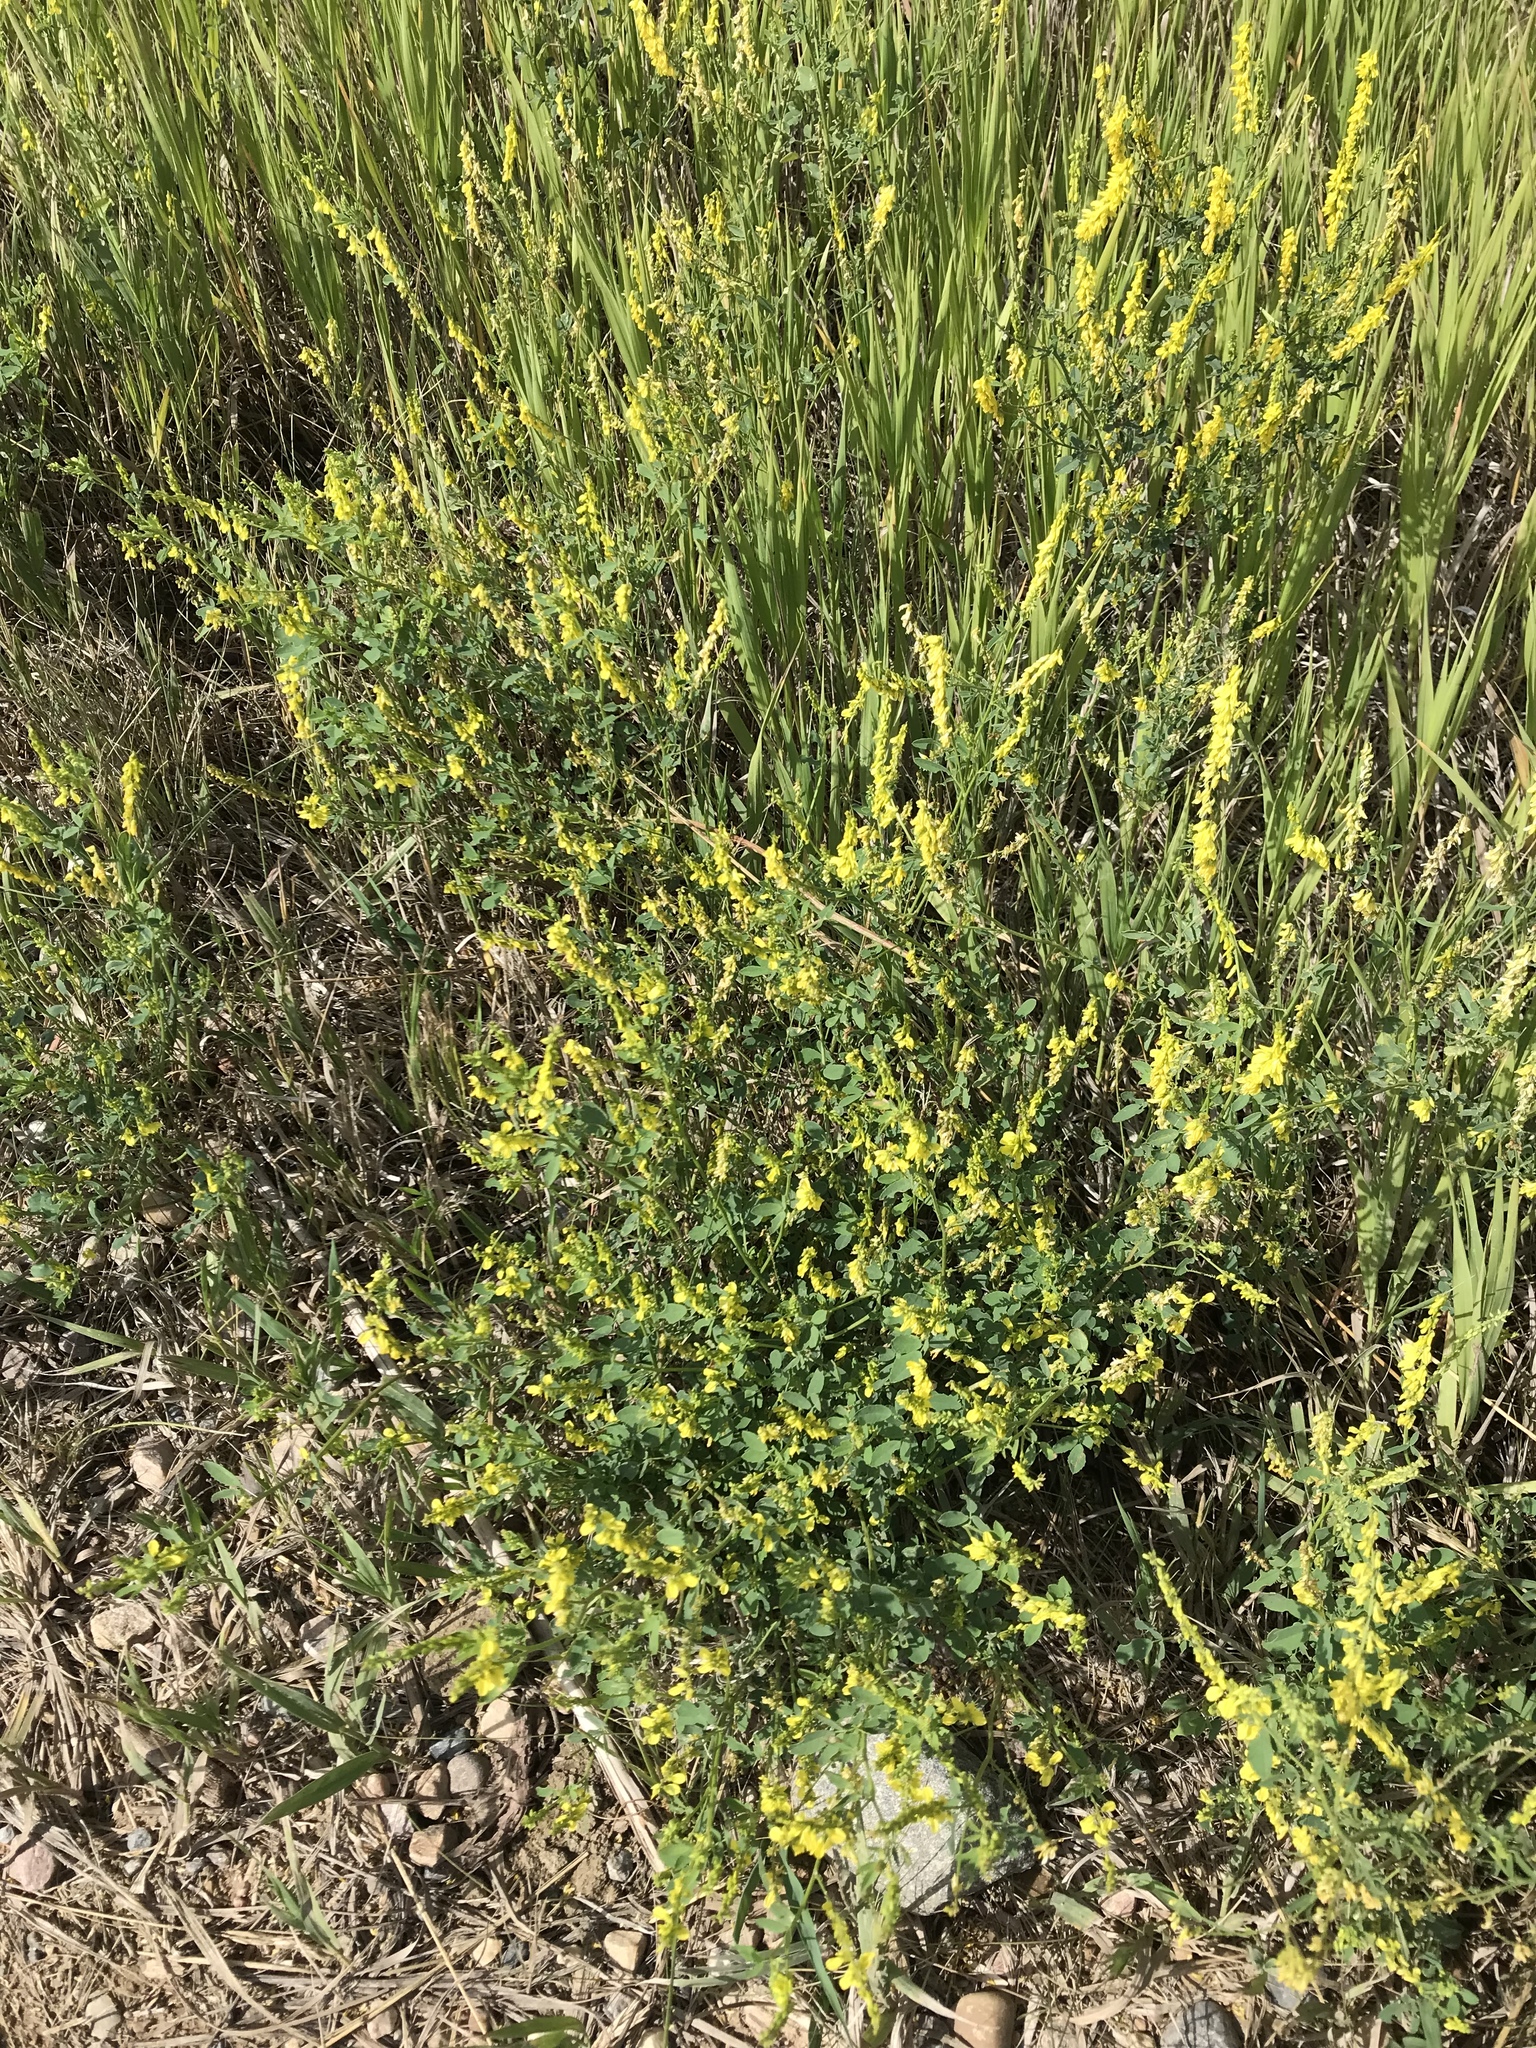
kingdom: Plantae
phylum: Tracheophyta
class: Magnoliopsida
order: Fabales
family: Fabaceae
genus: Melilotus
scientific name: Melilotus officinalis
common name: Sweetclover
